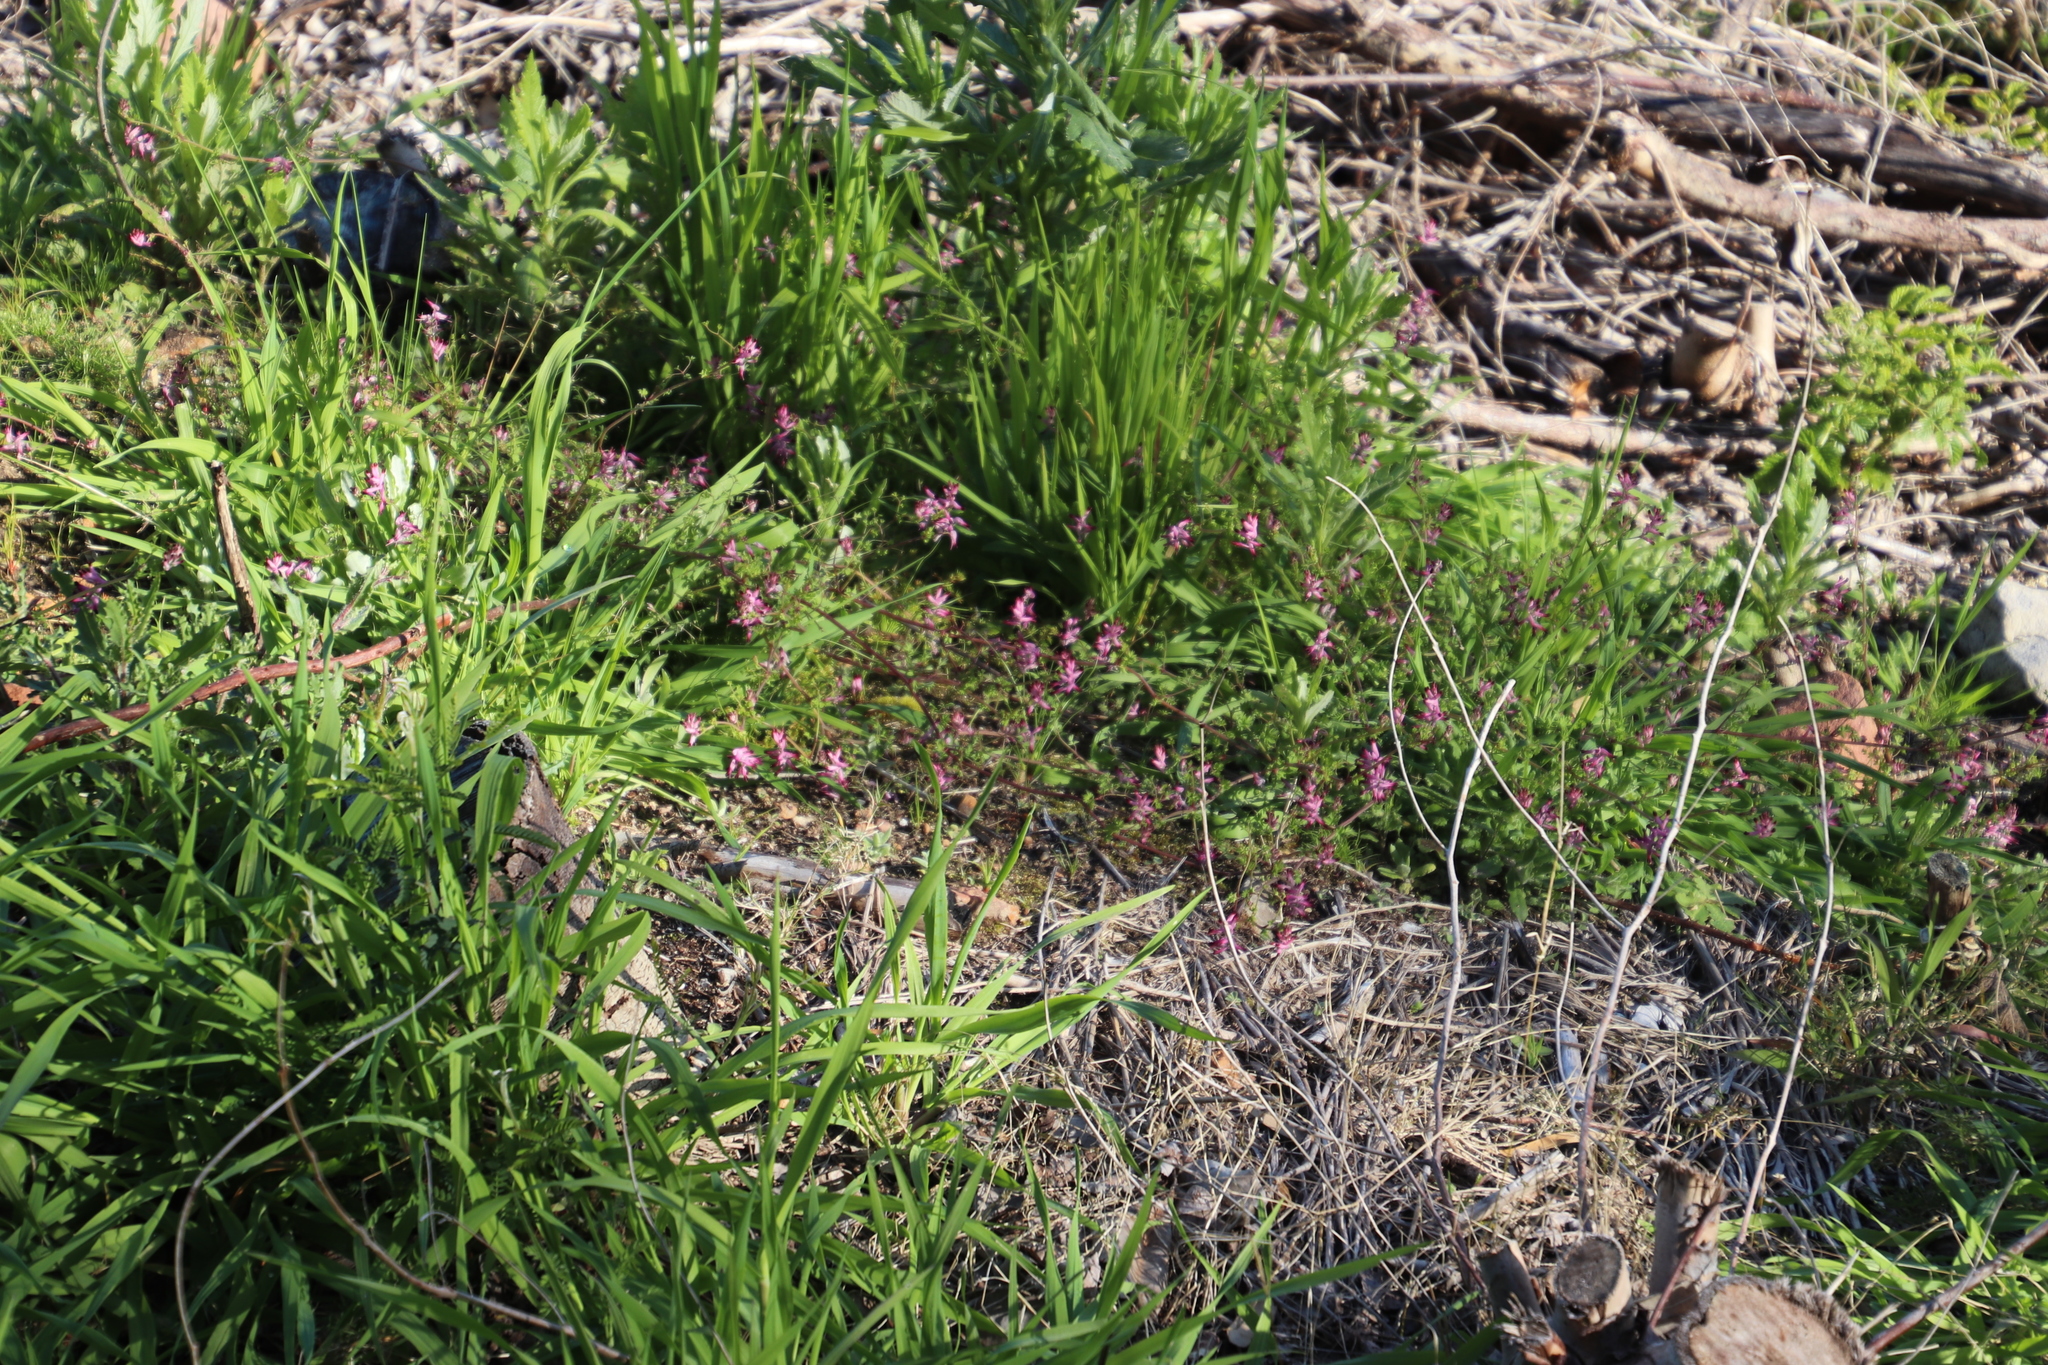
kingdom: Plantae
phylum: Tracheophyta
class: Magnoliopsida
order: Ranunculales
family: Papaveraceae
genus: Fumaria
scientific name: Fumaria muralis
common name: Common ramping-fumitory
